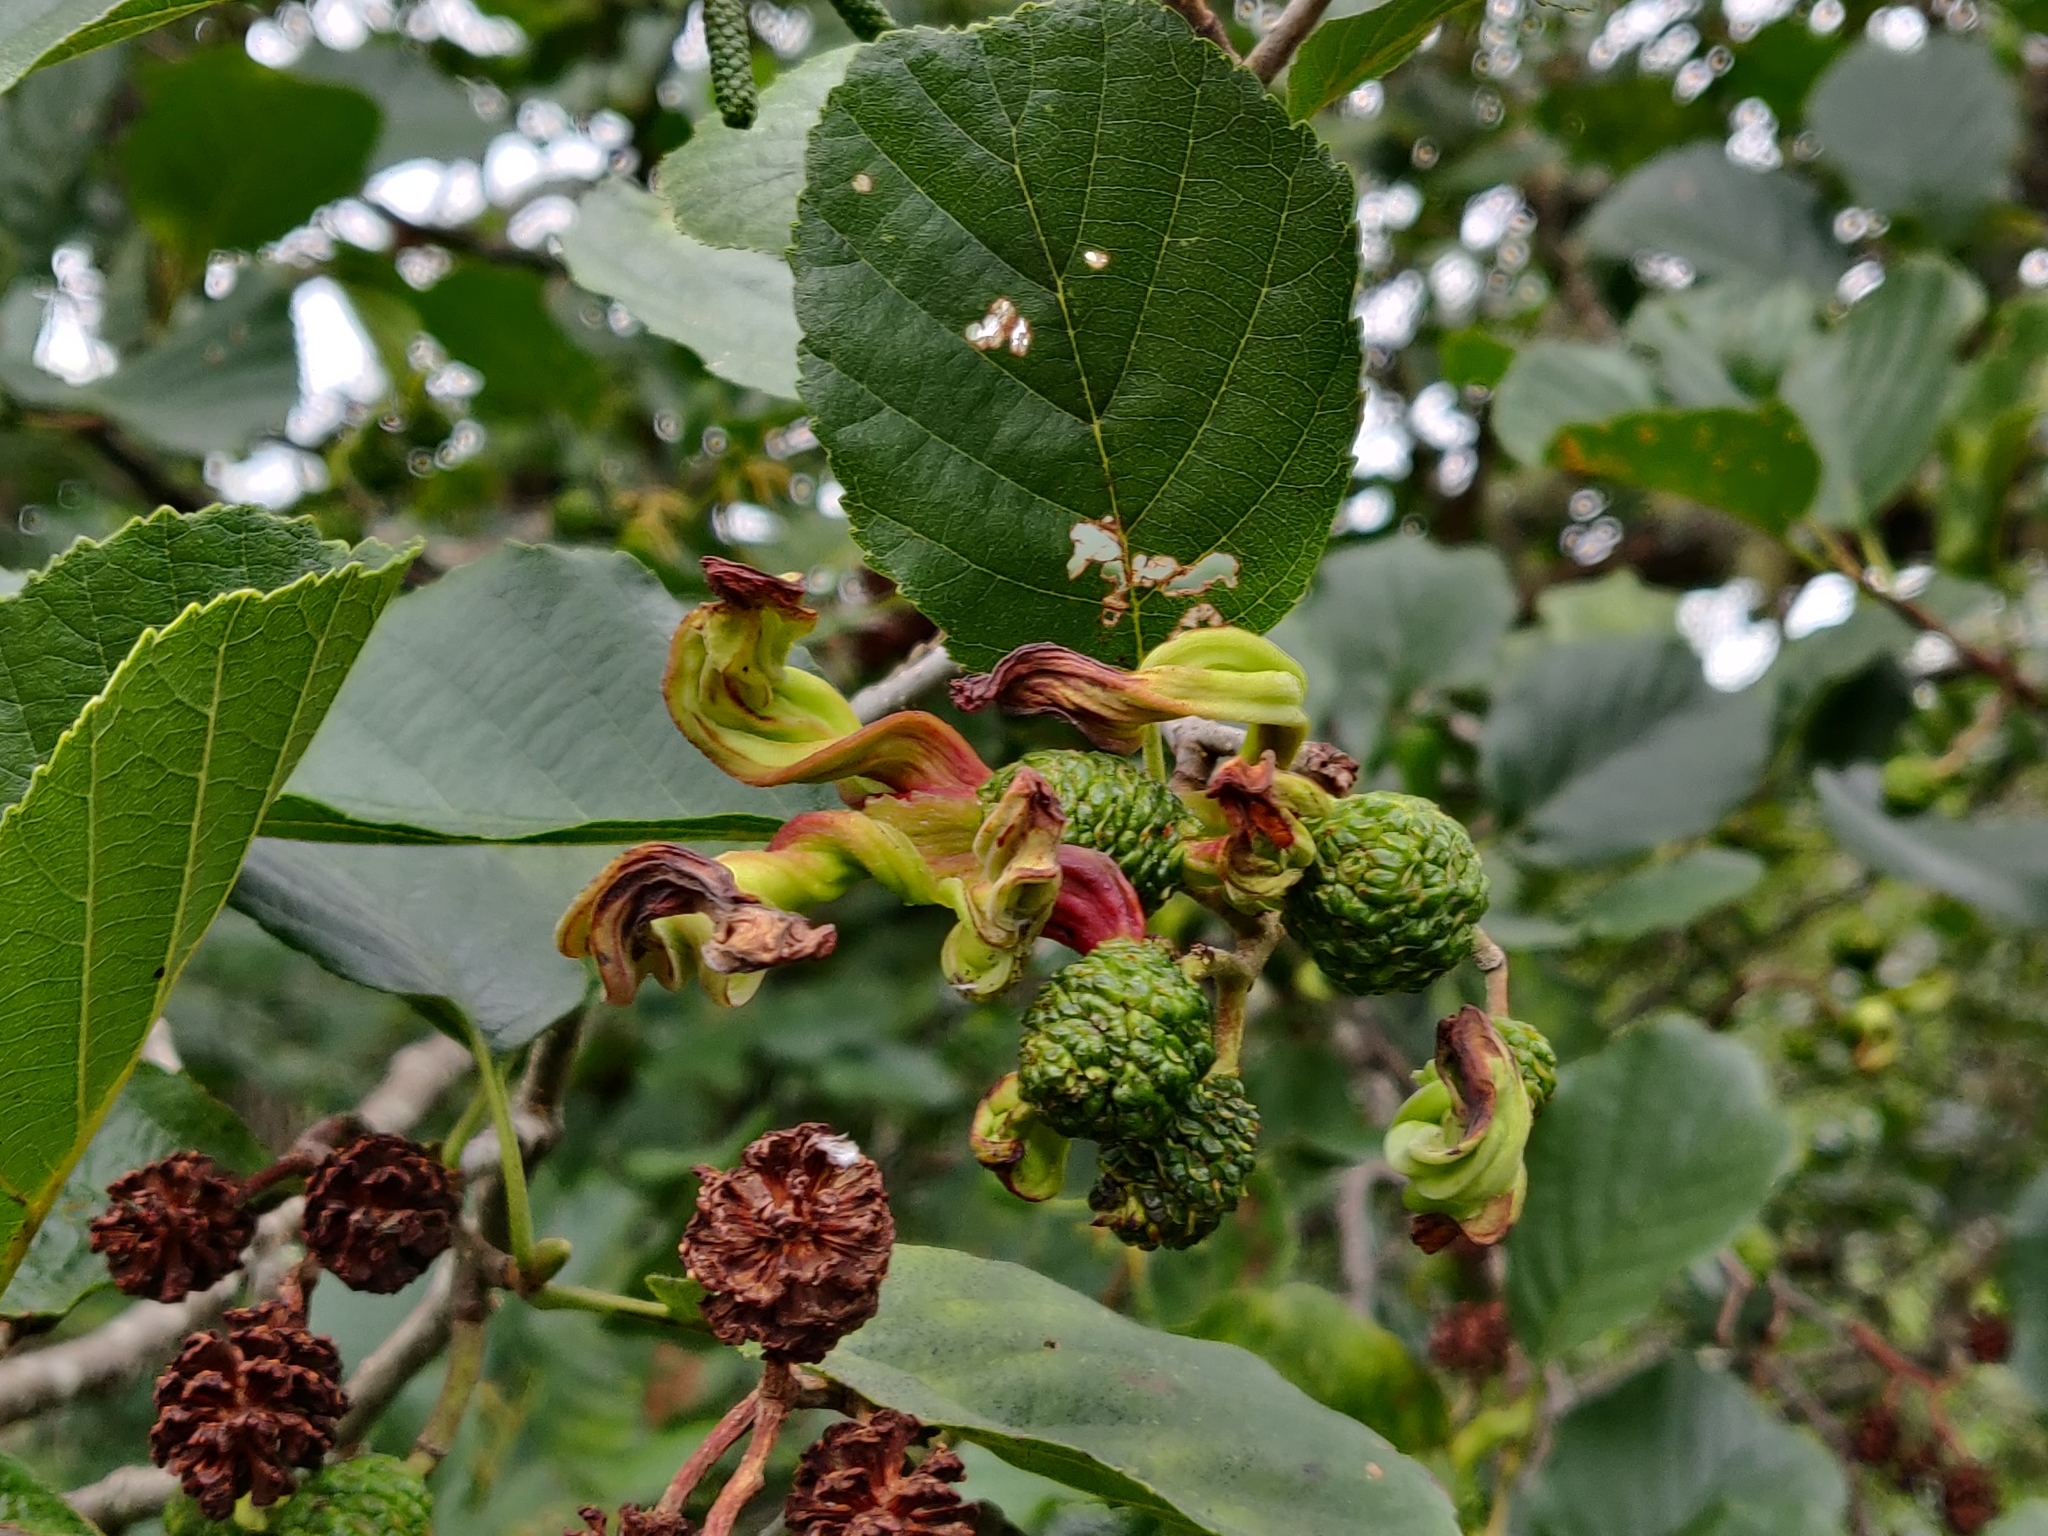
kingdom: Fungi
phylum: Ascomycota
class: Taphrinomycetes
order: Taphrinales
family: Taphrinaceae
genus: Taphrina
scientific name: Taphrina alni
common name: Alder tongue
